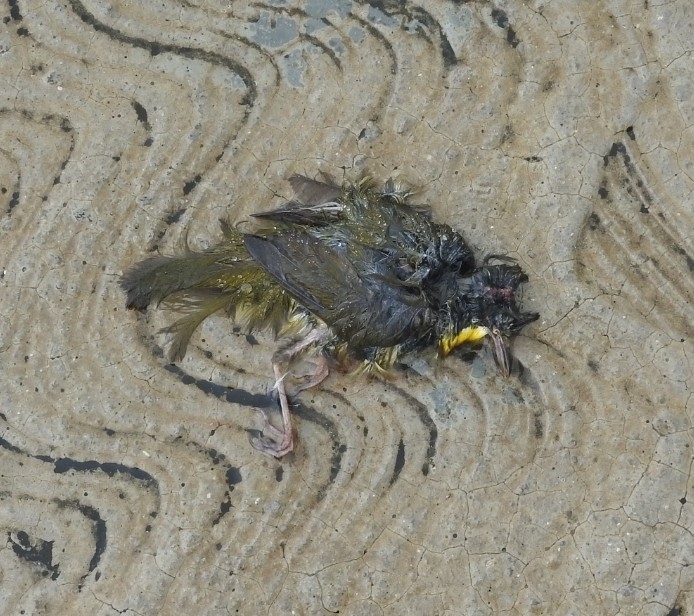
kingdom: Animalia
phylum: Chordata
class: Aves
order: Passeriformes
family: Parulidae
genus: Geothlypis
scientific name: Geothlypis formosa
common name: Kentucky warbler
